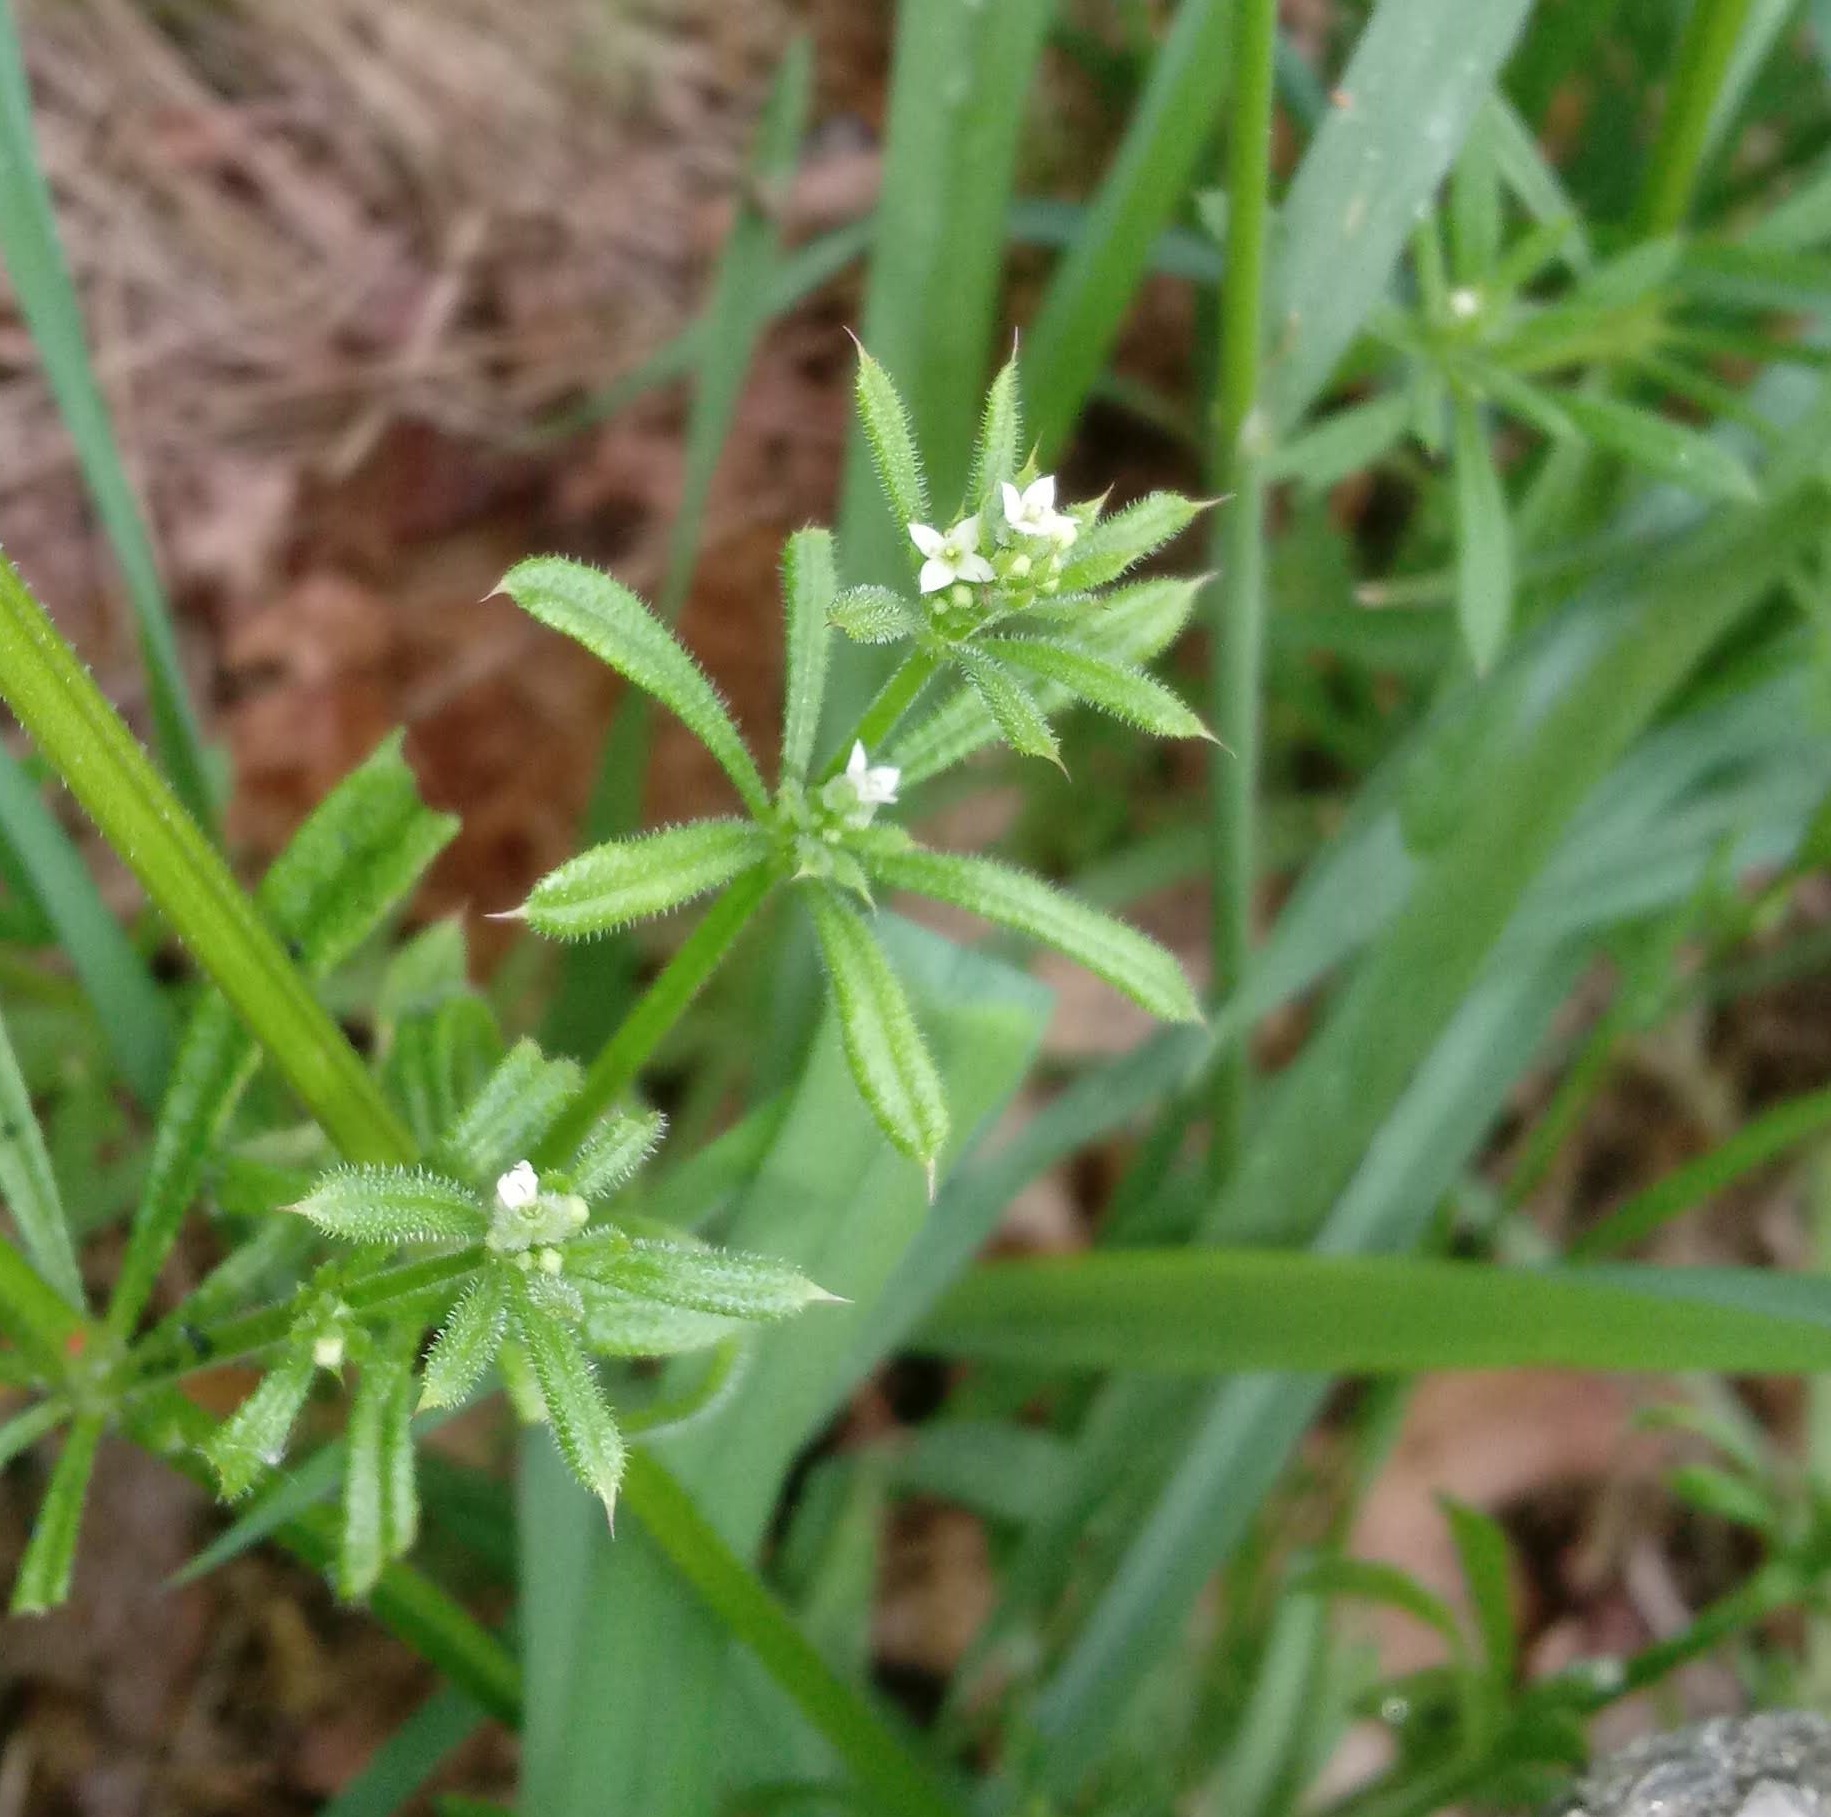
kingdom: Plantae
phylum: Tracheophyta
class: Magnoliopsida
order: Gentianales
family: Rubiaceae
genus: Galium
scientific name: Galium aparine
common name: Cleavers
